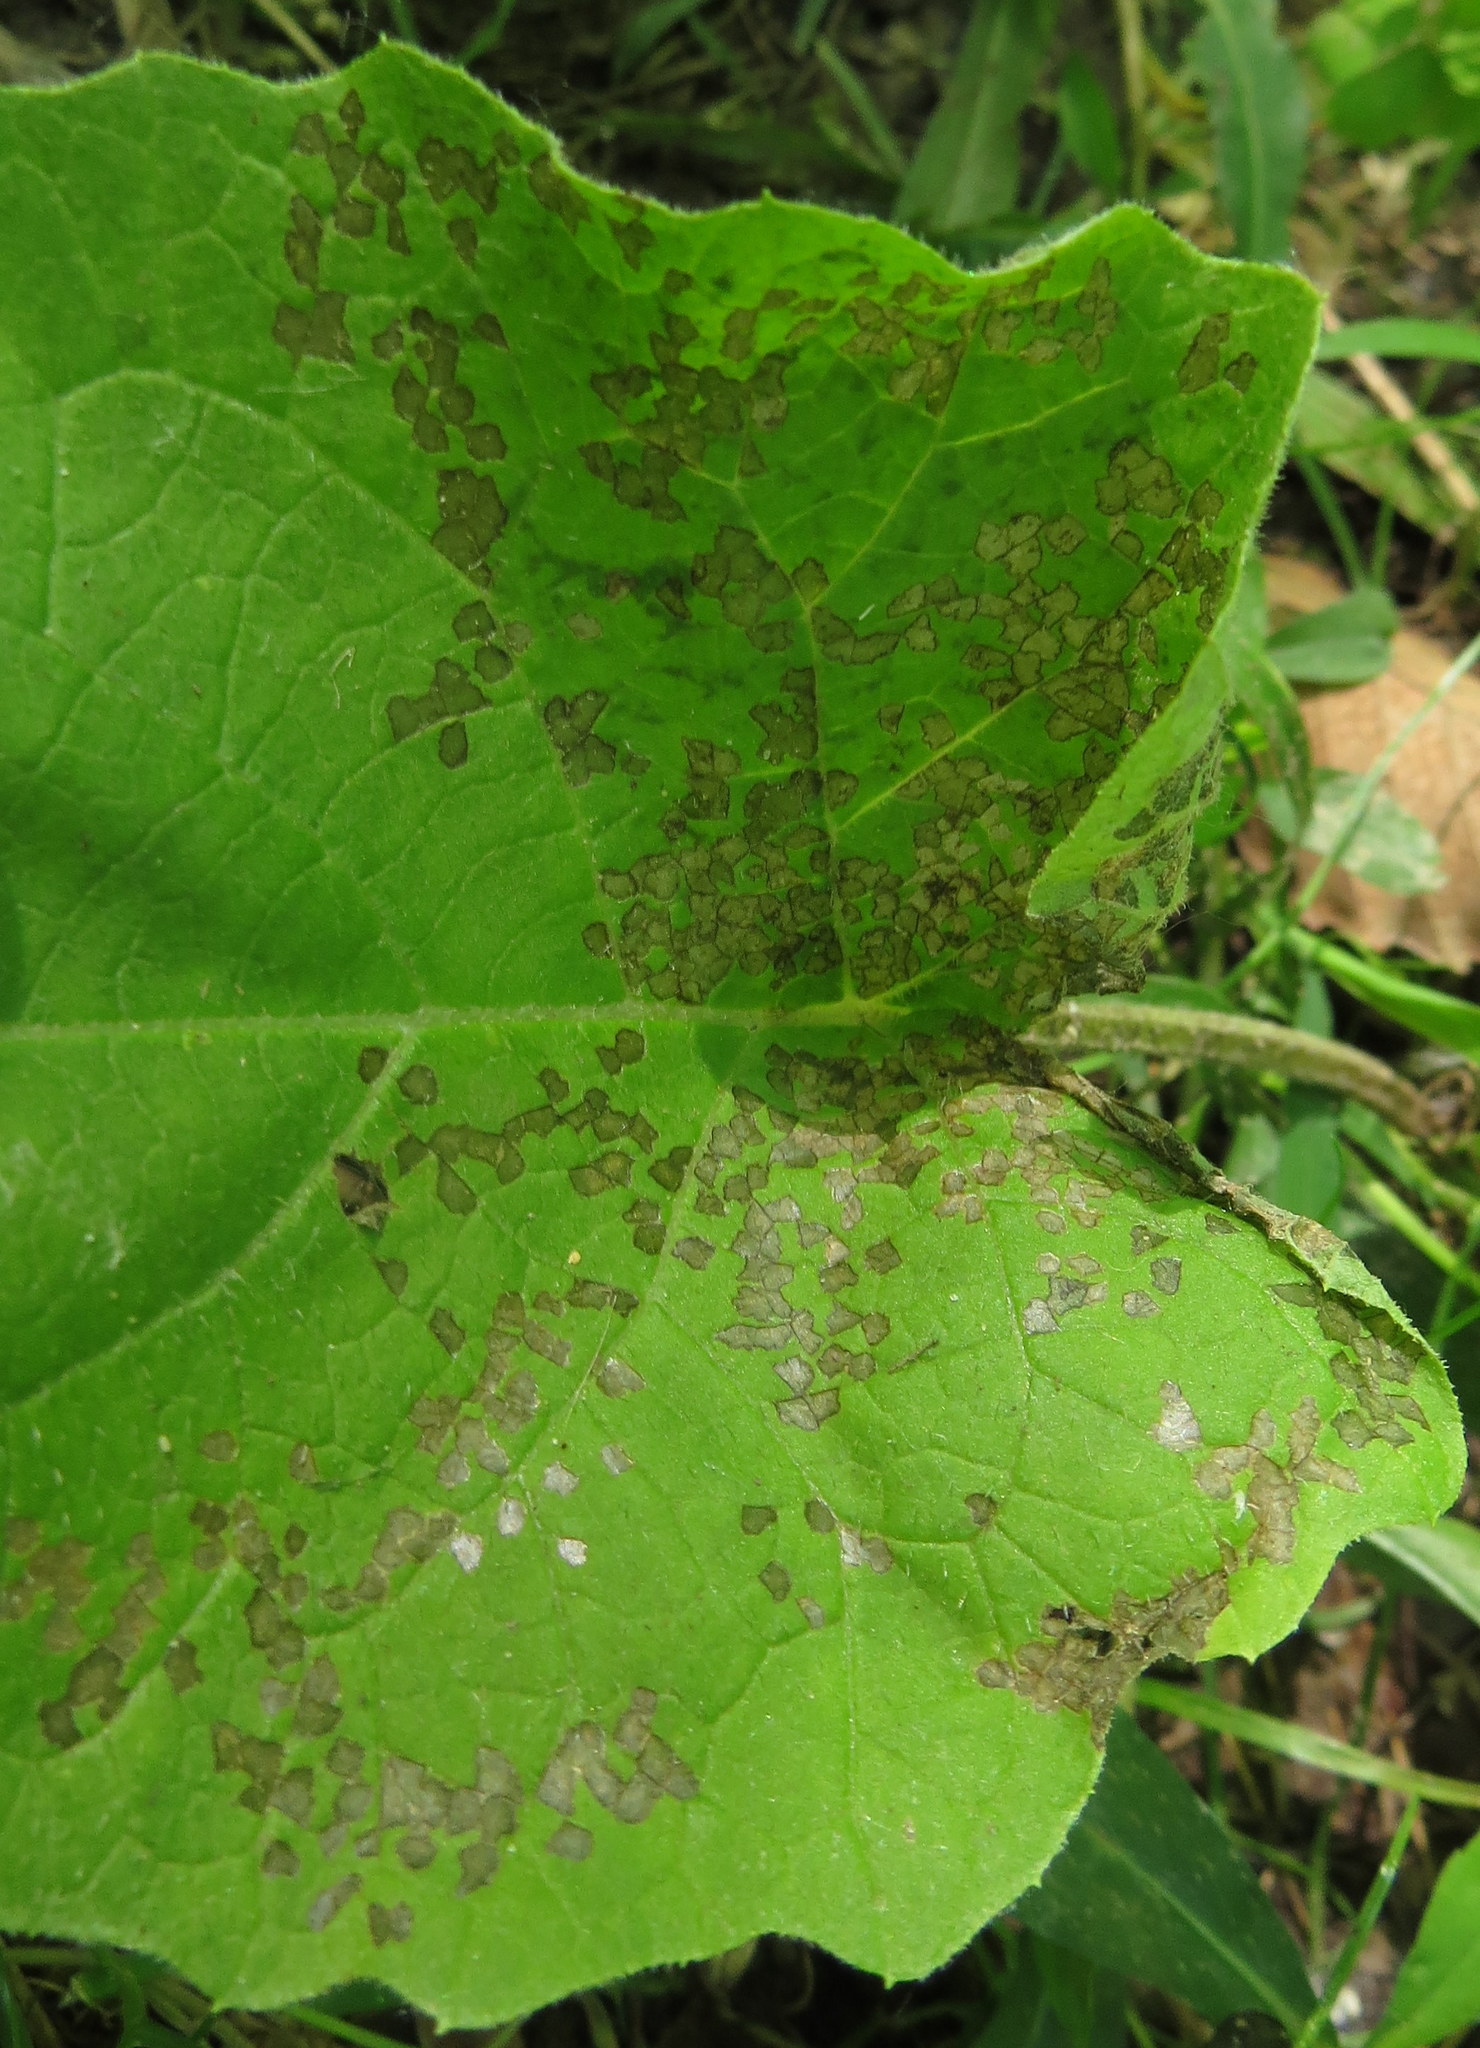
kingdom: Animalia
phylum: Arthropoda
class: Insecta
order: Hemiptera
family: Miridae
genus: Poecilocapsus
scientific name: Poecilocapsus lineatus
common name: Four-lined plant bug
